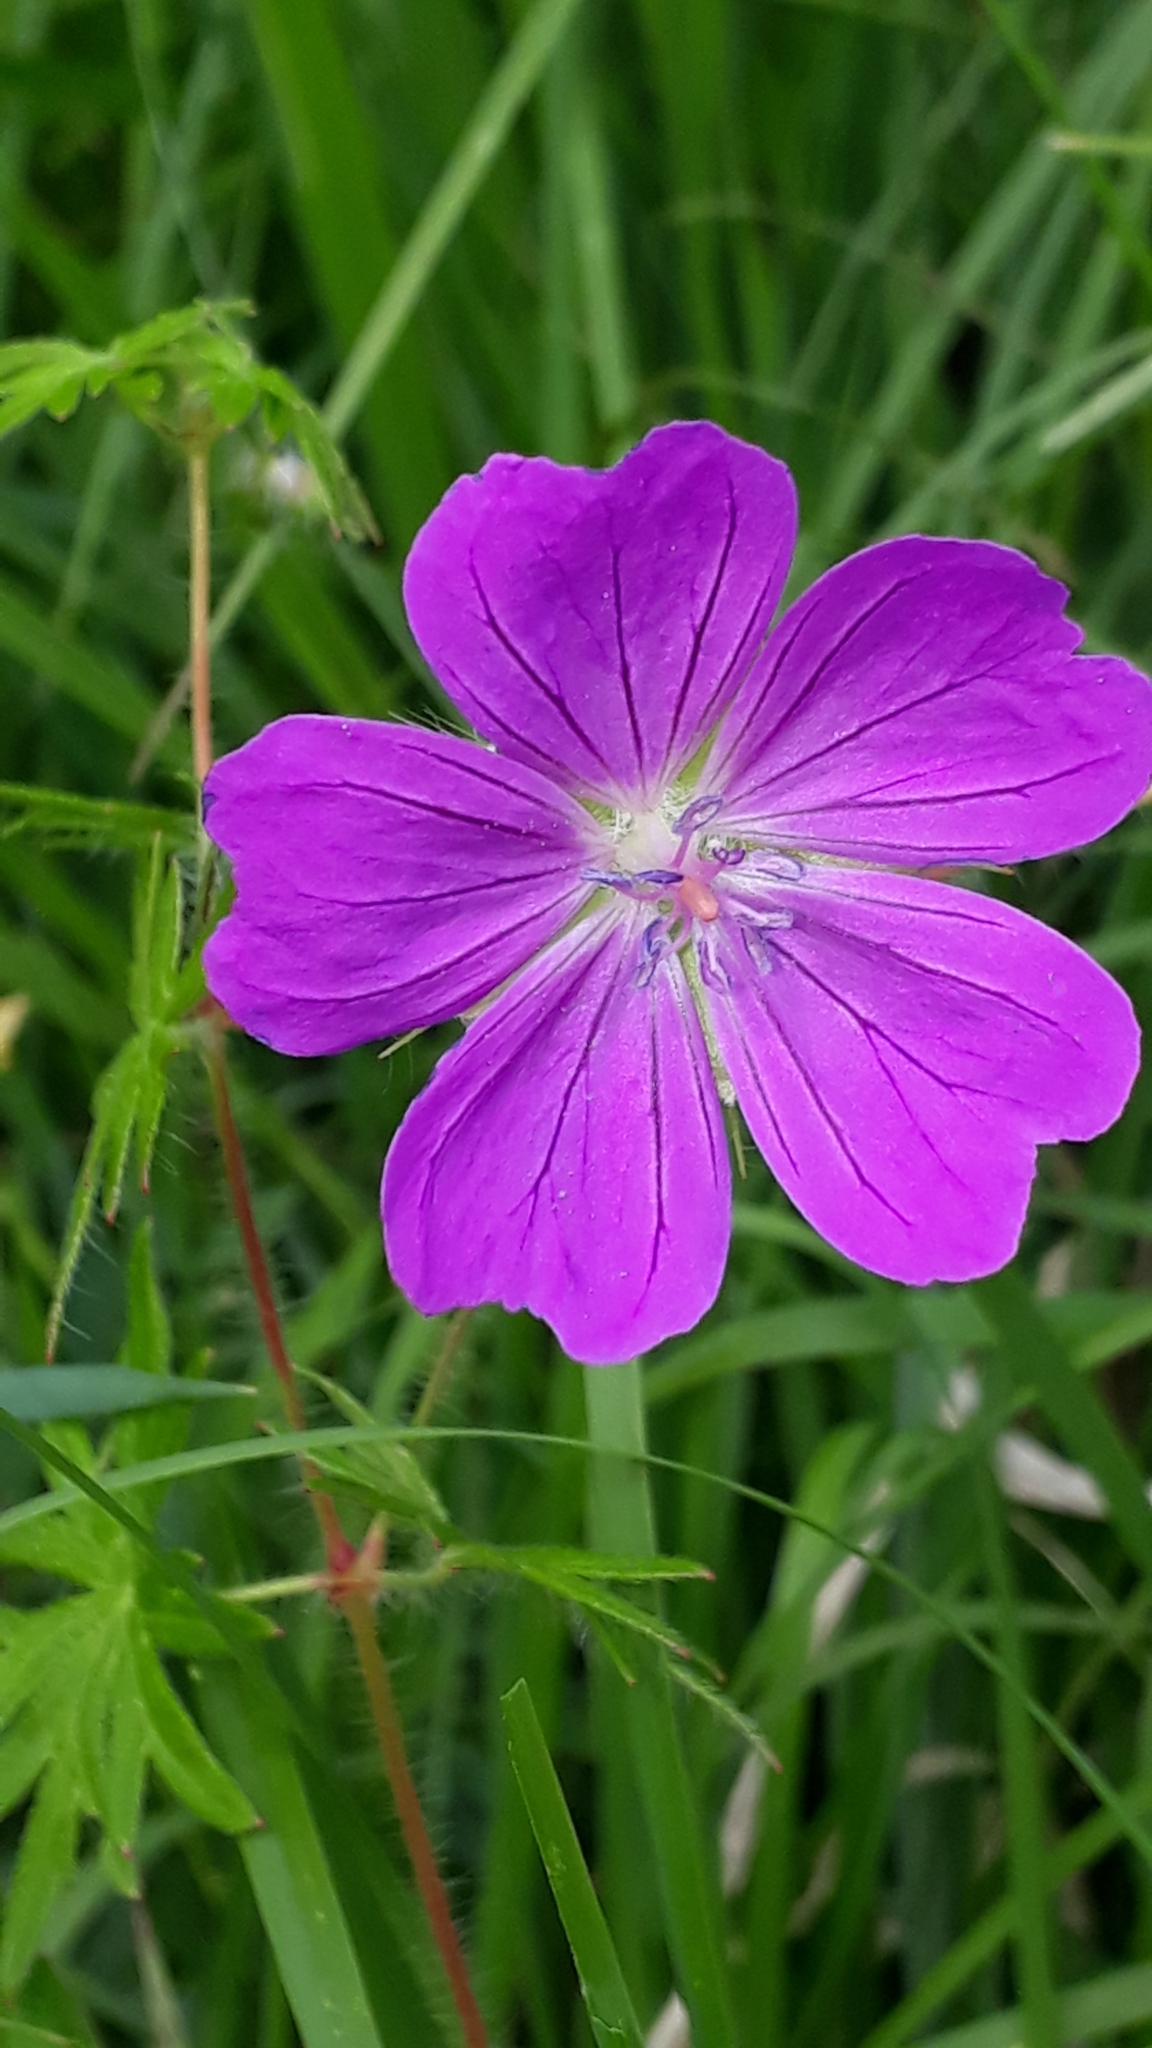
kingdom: Plantae
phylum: Tracheophyta
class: Magnoliopsida
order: Geraniales
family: Geraniaceae
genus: Geranium
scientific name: Geranium sanguineum
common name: Bloody crane's-bill
